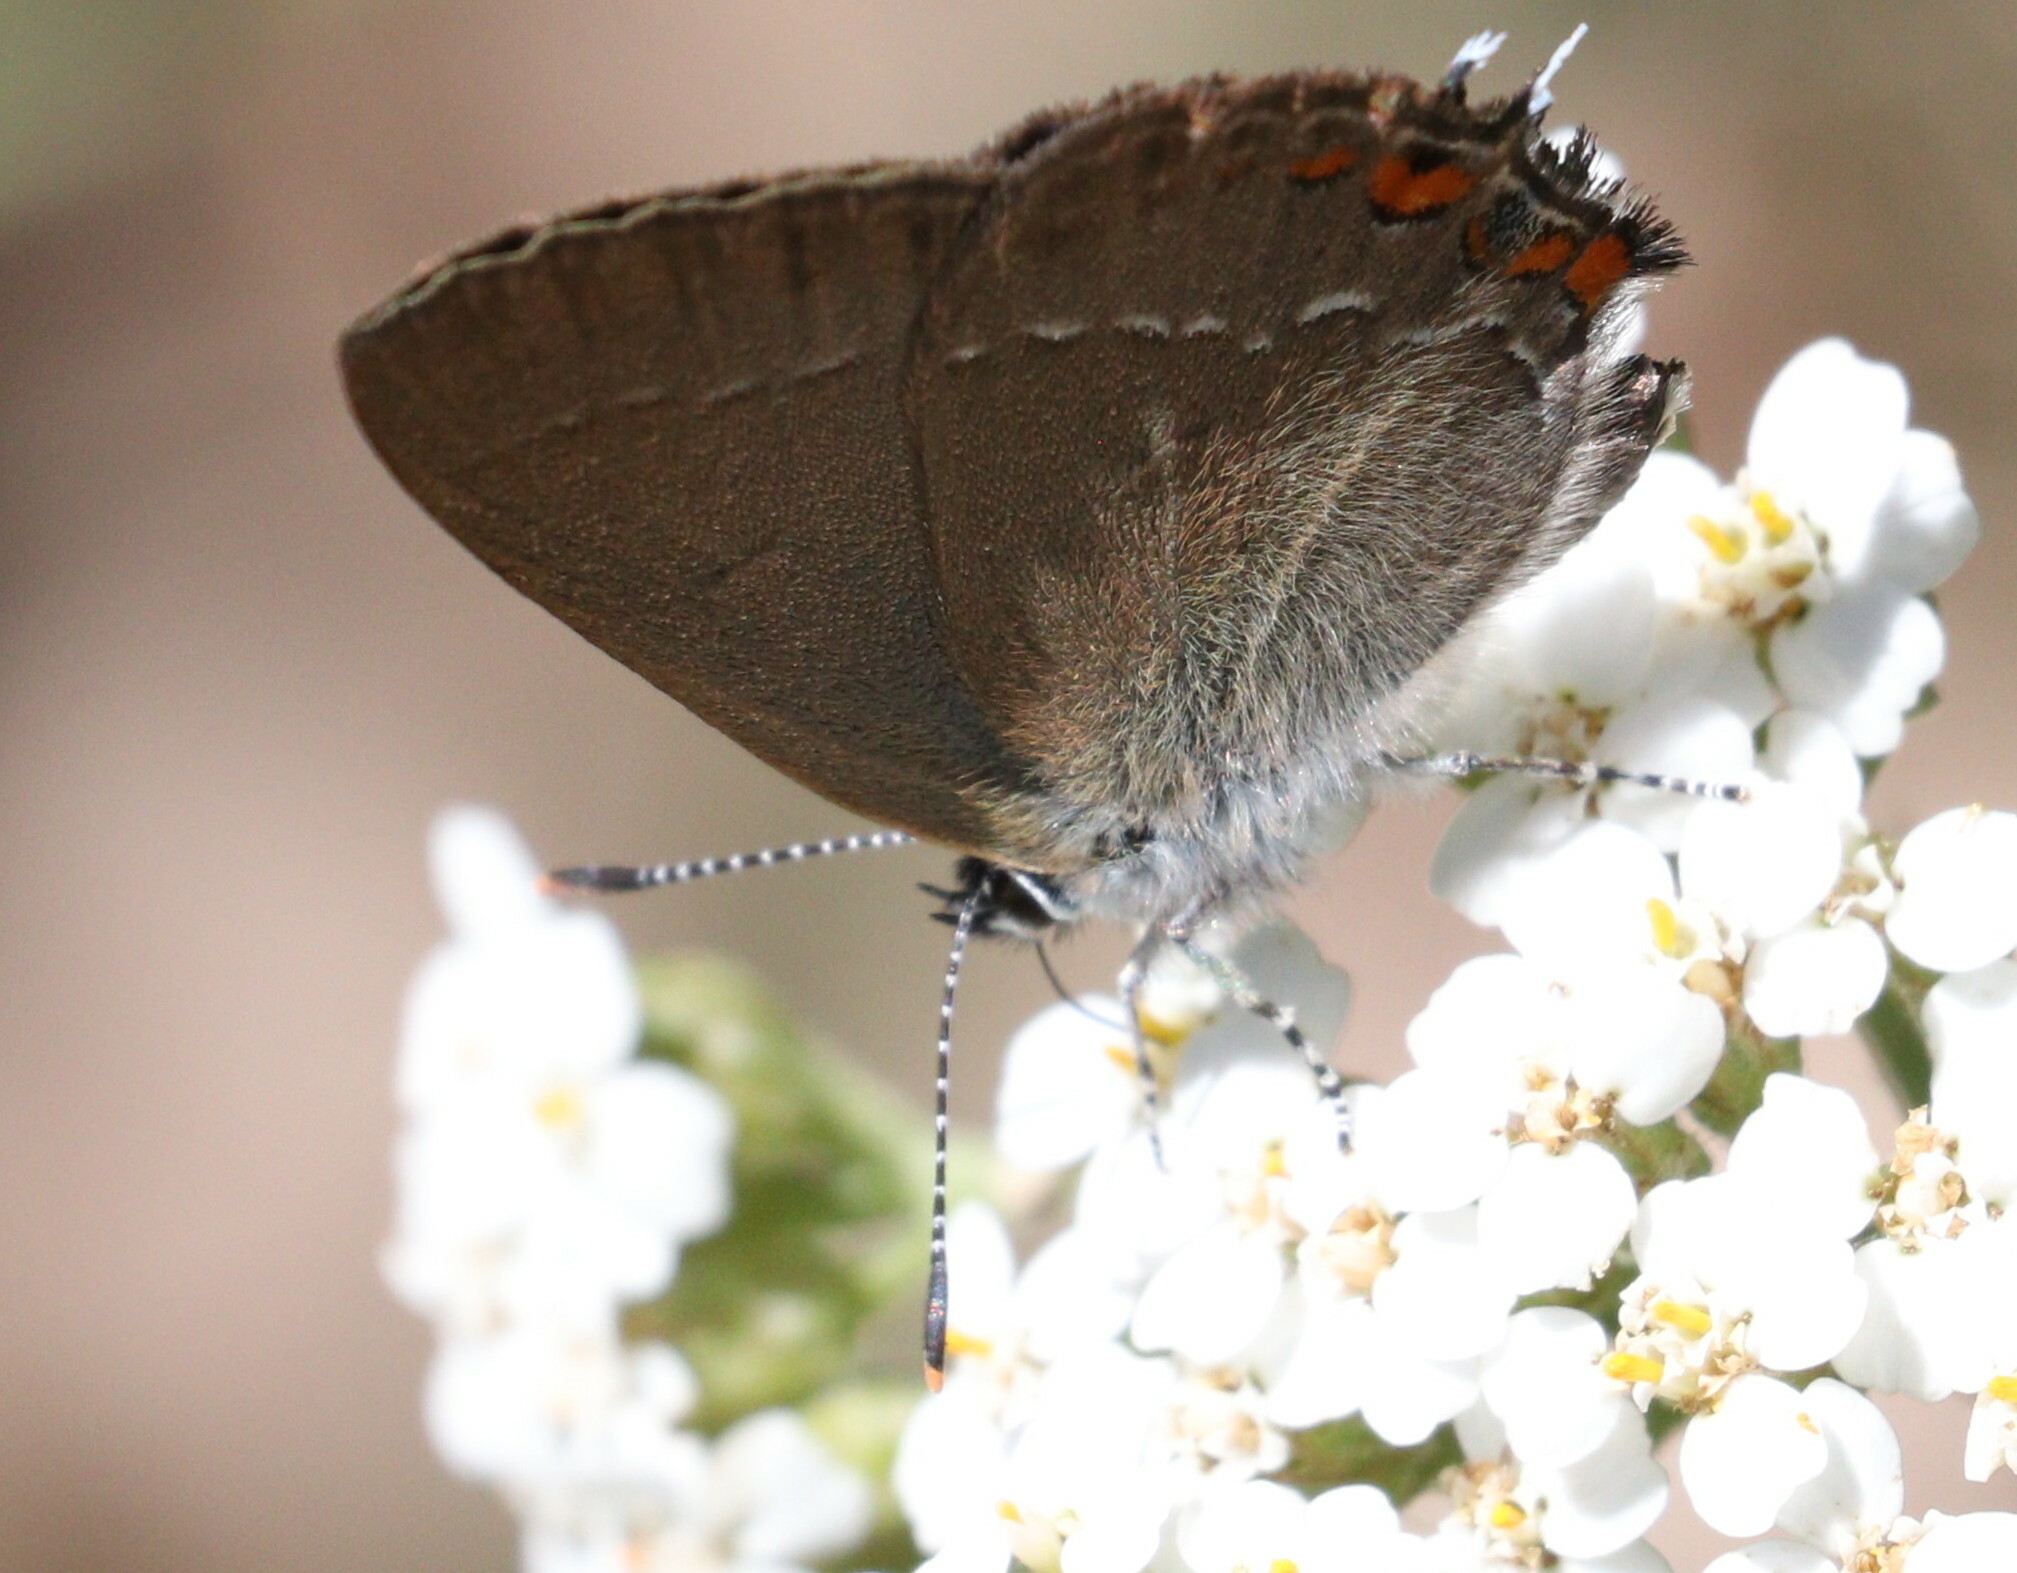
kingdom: Animalia
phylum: Arthropoda
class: Insecta
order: Lepidoptera
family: Lycaenidae
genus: Strymon
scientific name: Strymon acaciae
